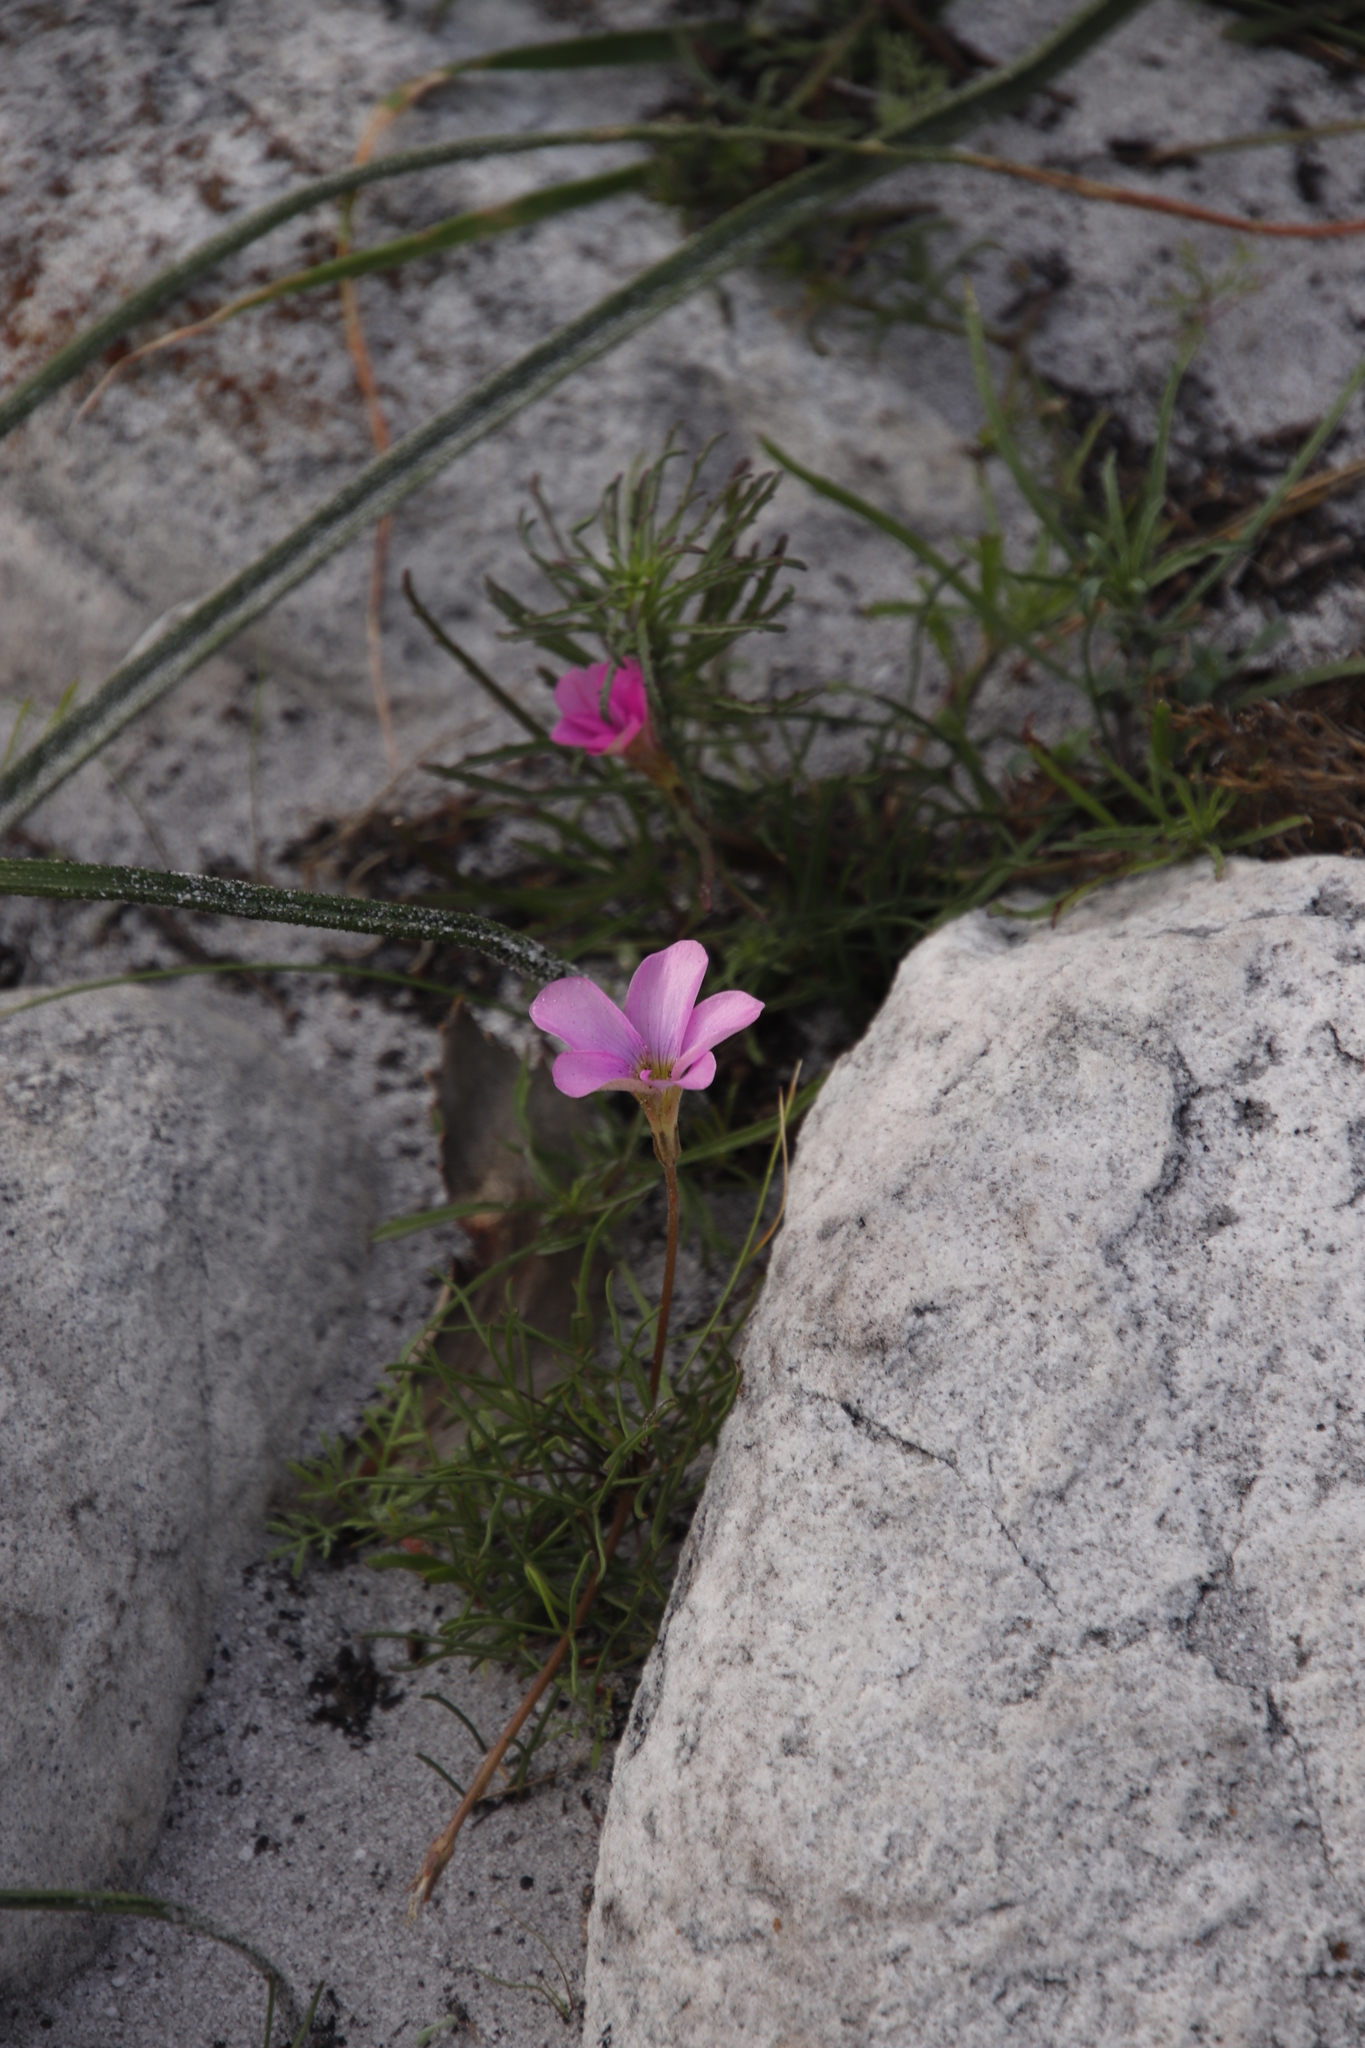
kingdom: Plantae
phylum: Tracheophyta
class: Magnoliopsida
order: Oxalidales
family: Oxalidaceae
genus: Oxalis
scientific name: Oxalis polyphylla
